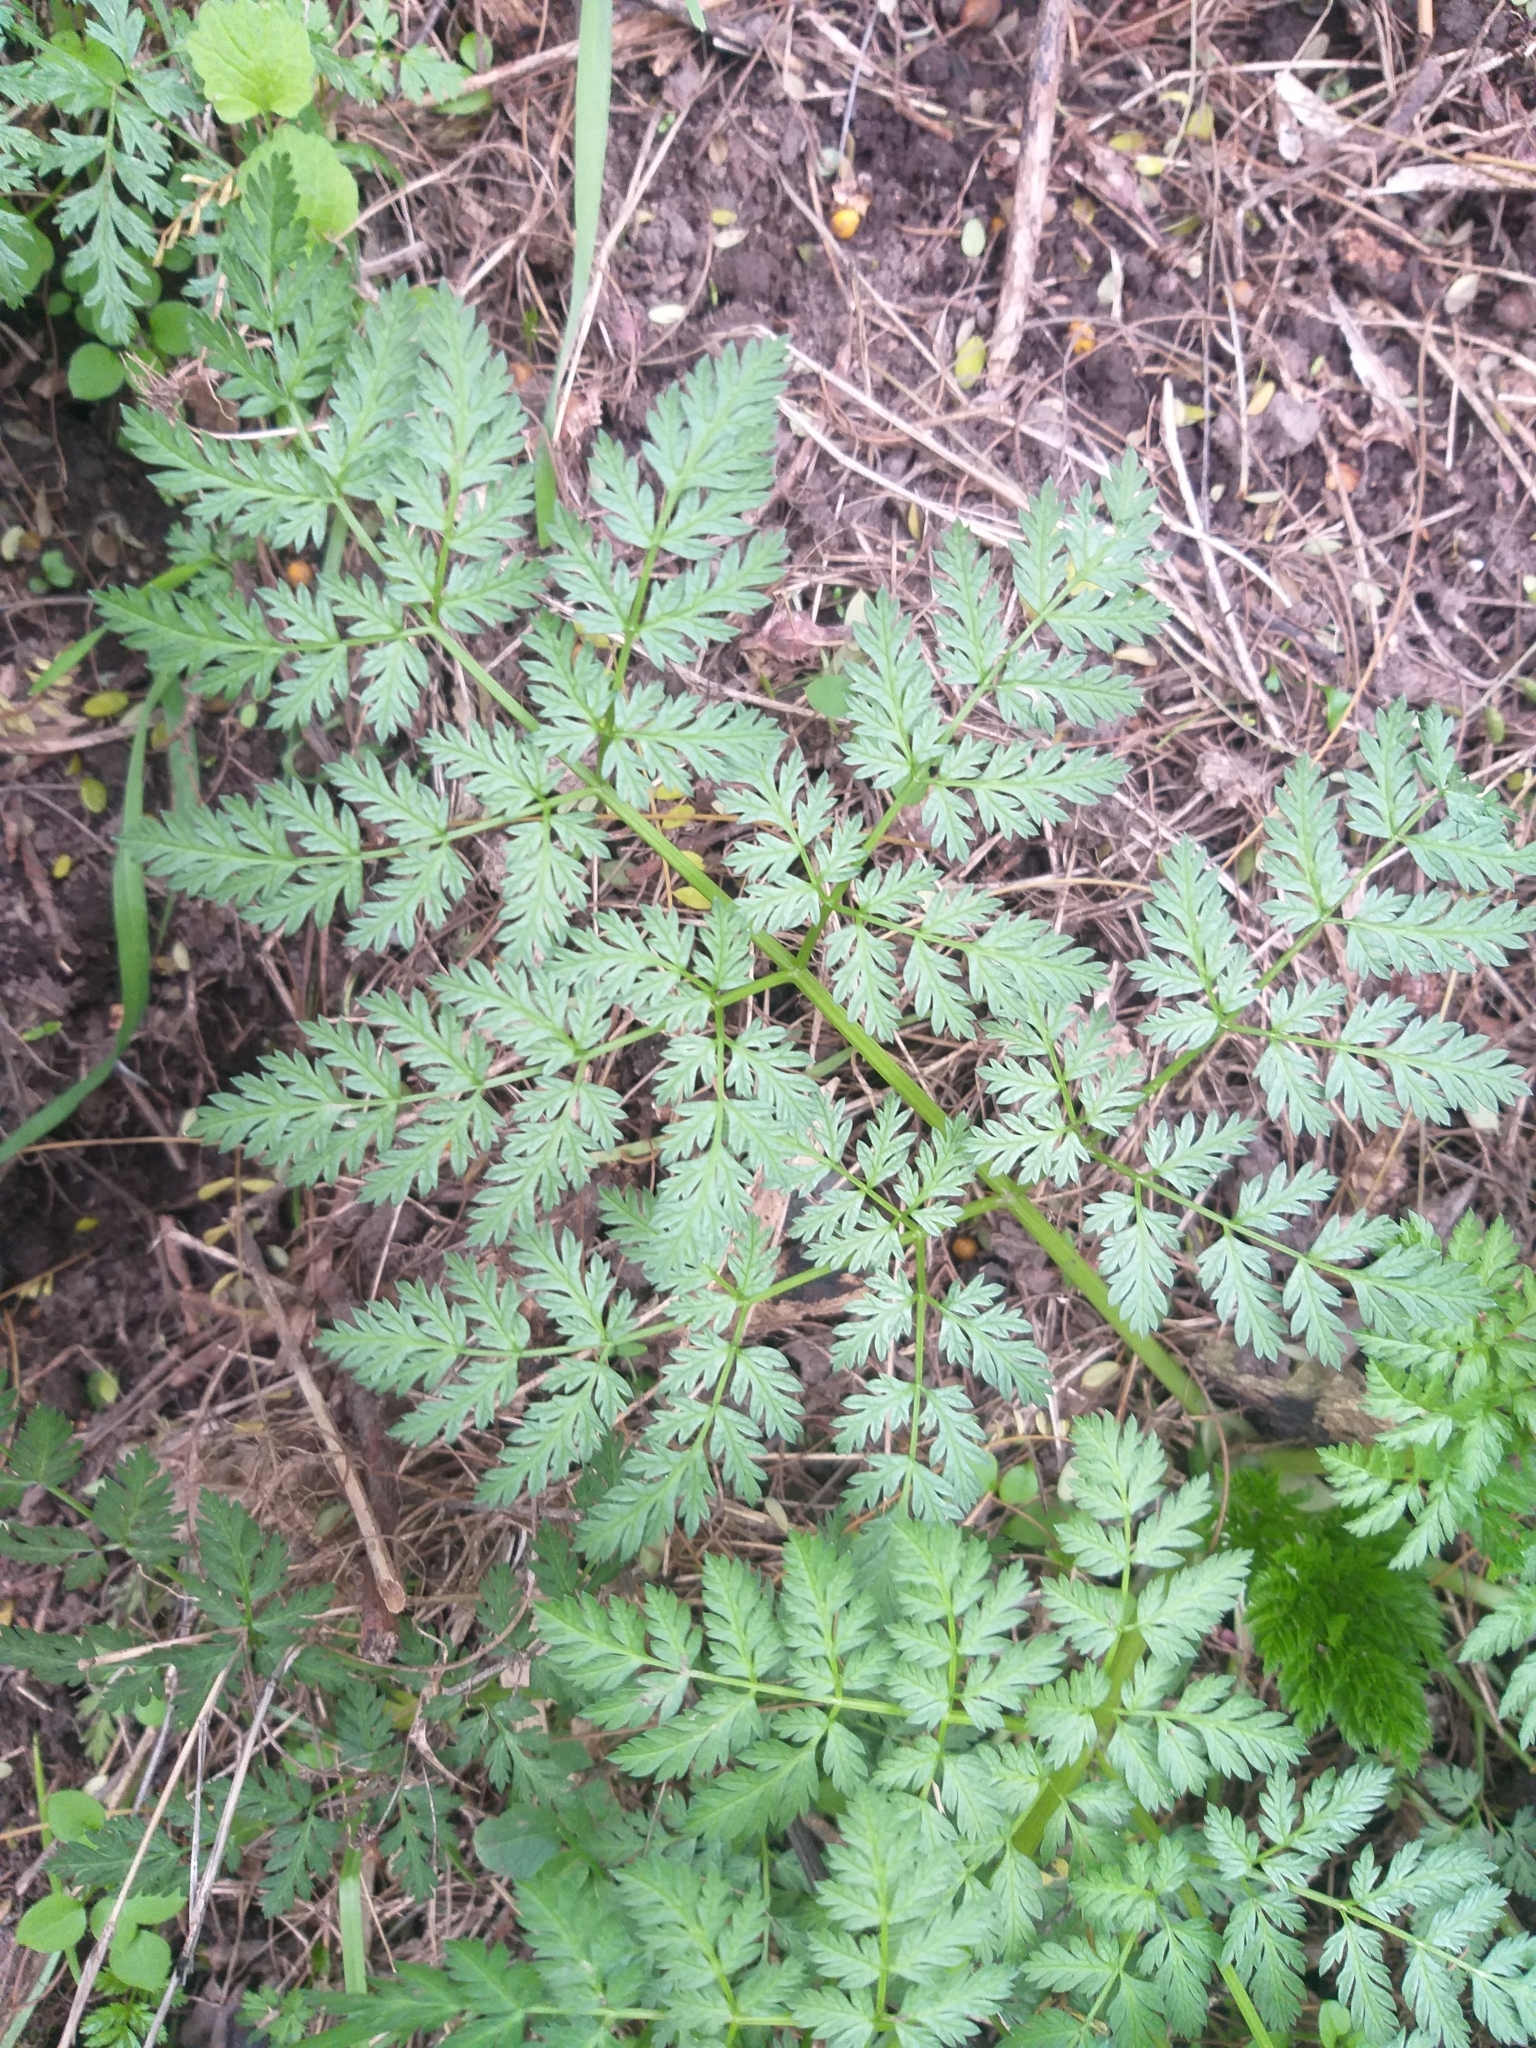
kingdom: Plantae
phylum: Tracheophyta
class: Magnoliopsida
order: Apiales
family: Apiaceae
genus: Conium
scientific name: Conium maculatum
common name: Hemlock
